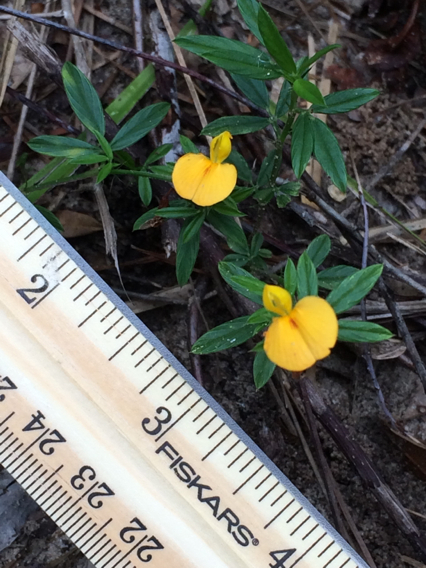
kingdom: Plantae
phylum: Tracheophyta
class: Magnoliopsida
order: Fabales
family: Fabaceae
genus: Stylosanthes
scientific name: Stylosanthes biflora
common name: Two-flower pencil-flower
